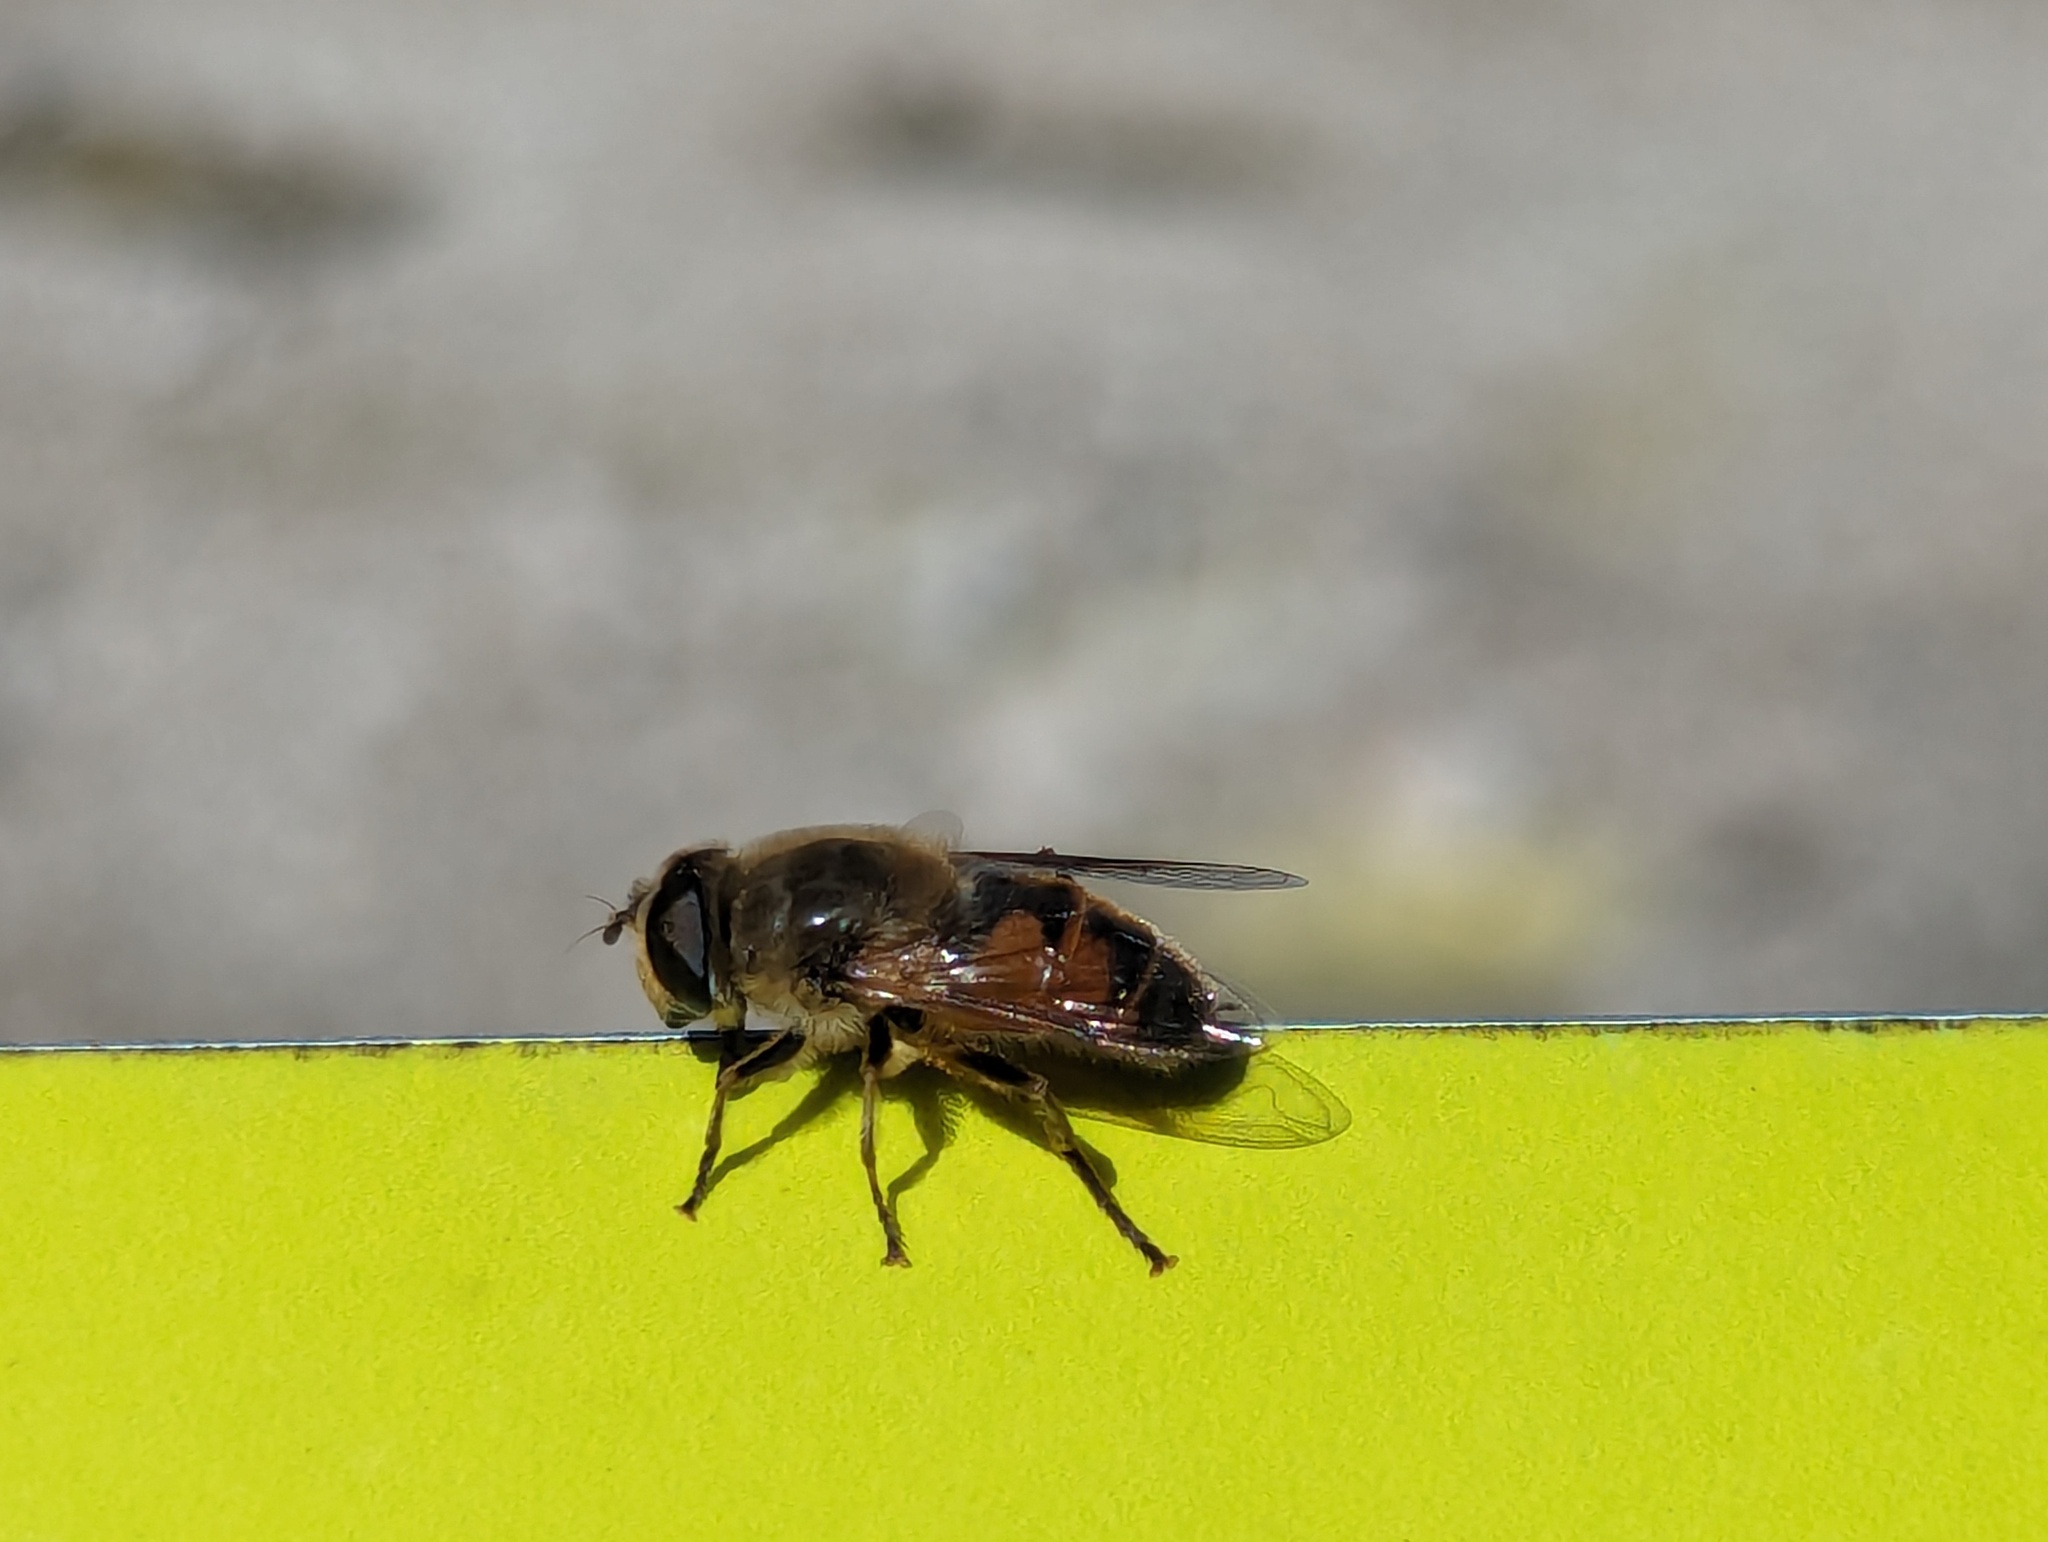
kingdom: Animalia
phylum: Arthropoda
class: Insecta
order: Diptera
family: Syrphidae
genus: Eristalis
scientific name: Eristalis tenax
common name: Drone fly
